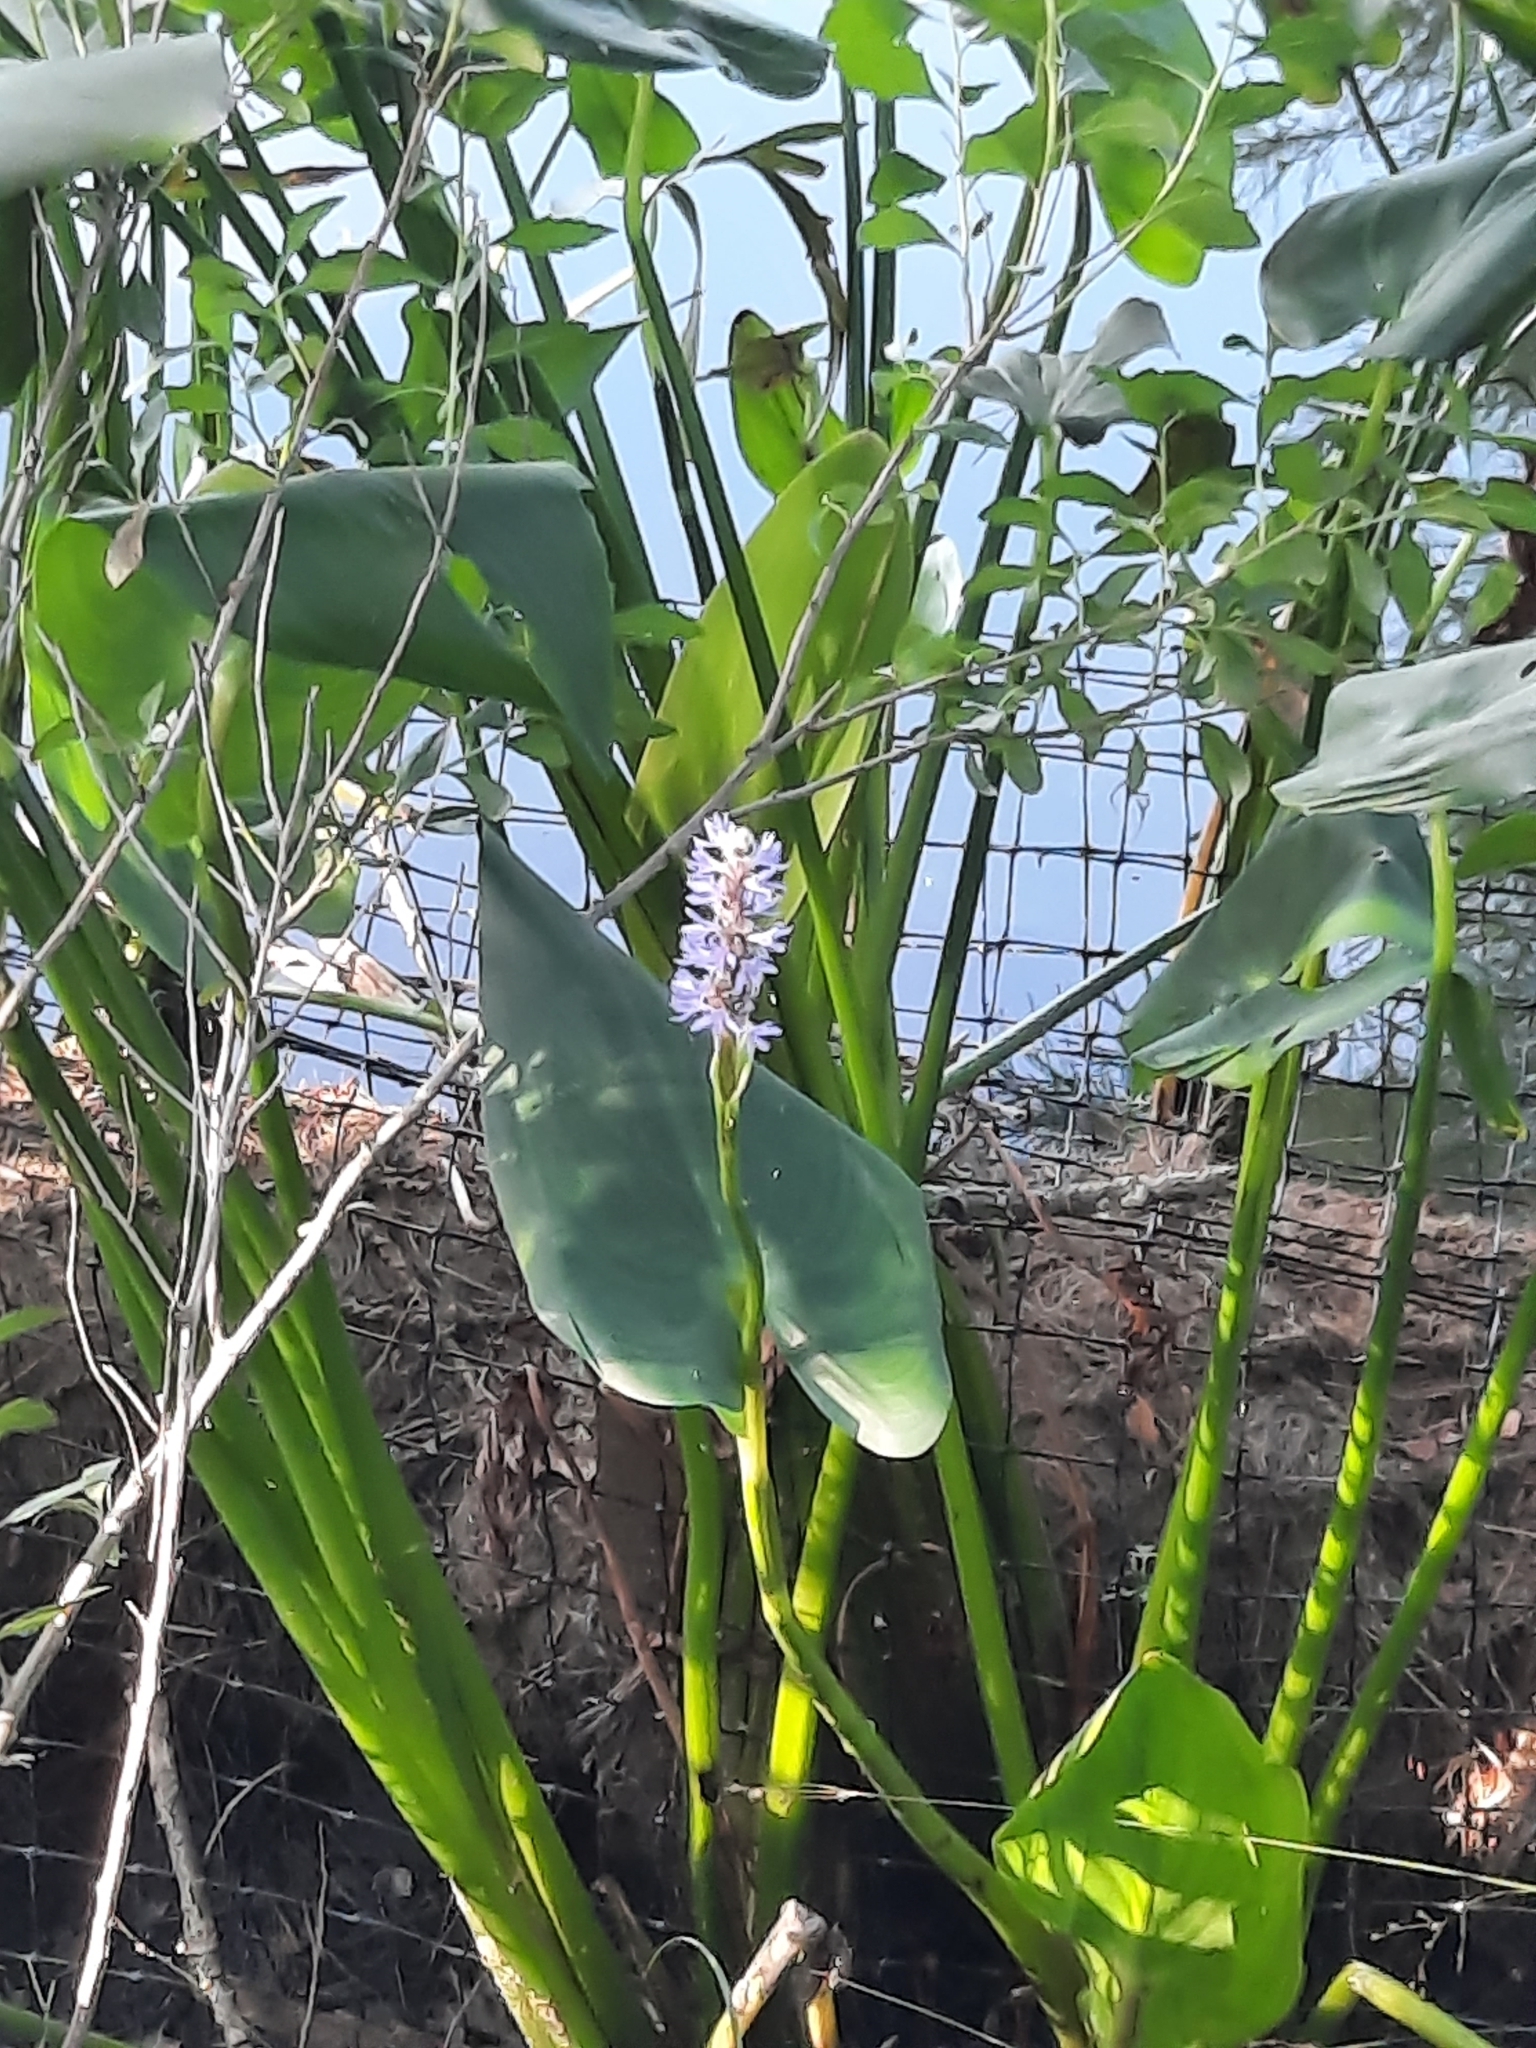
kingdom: Plantae
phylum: Tracheophyta
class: Liliopsida
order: Commelinales
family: Pontederiaceae
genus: Pontederia
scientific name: Pontederia cordata
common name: Pickerelweed
